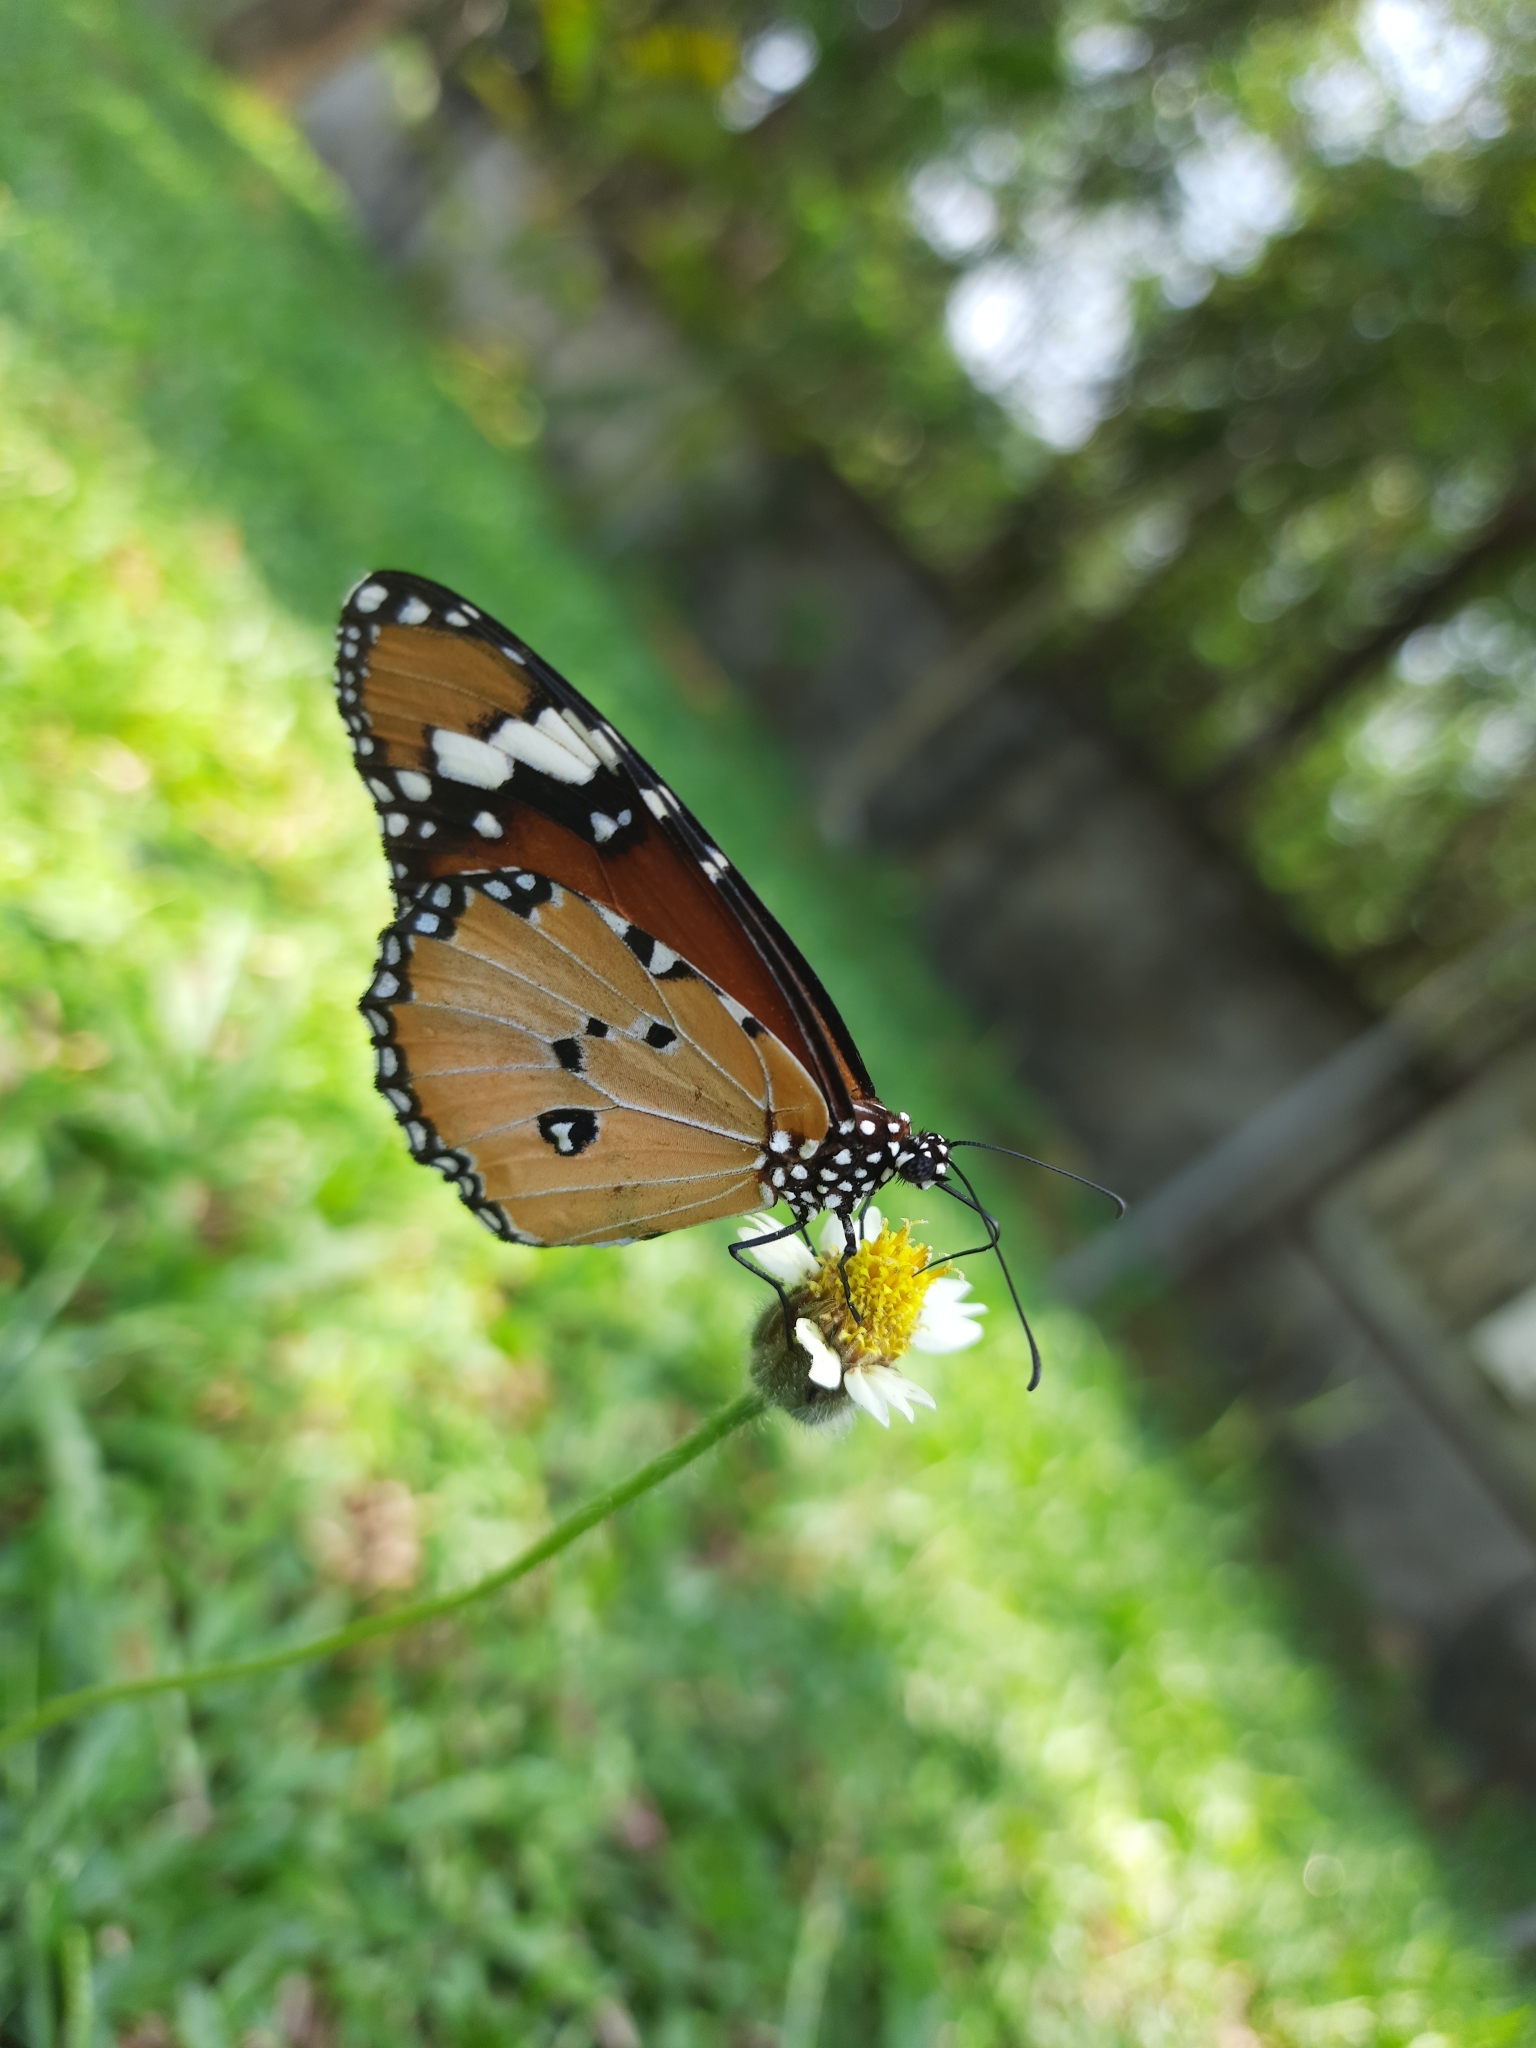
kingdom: Animalia
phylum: Arthropoda
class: Insecta
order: Lepidoptera
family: Nymphalidae
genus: Danaus
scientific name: Danaus chrysippus
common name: Plain tiger
